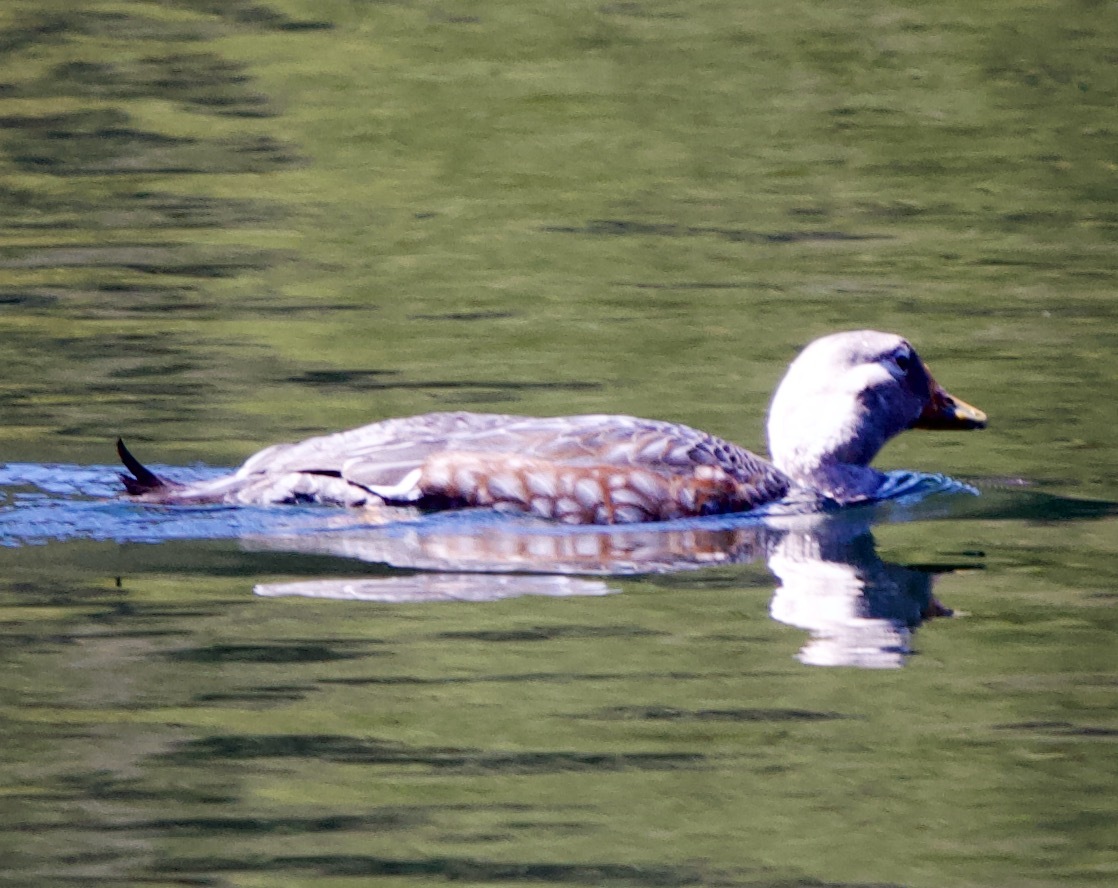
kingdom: Animalia
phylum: Chordata
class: Aves
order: Anseriformes
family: Anatidae
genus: Tachyeres
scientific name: Tachyeres patachonicus
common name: Flying steamer duck
